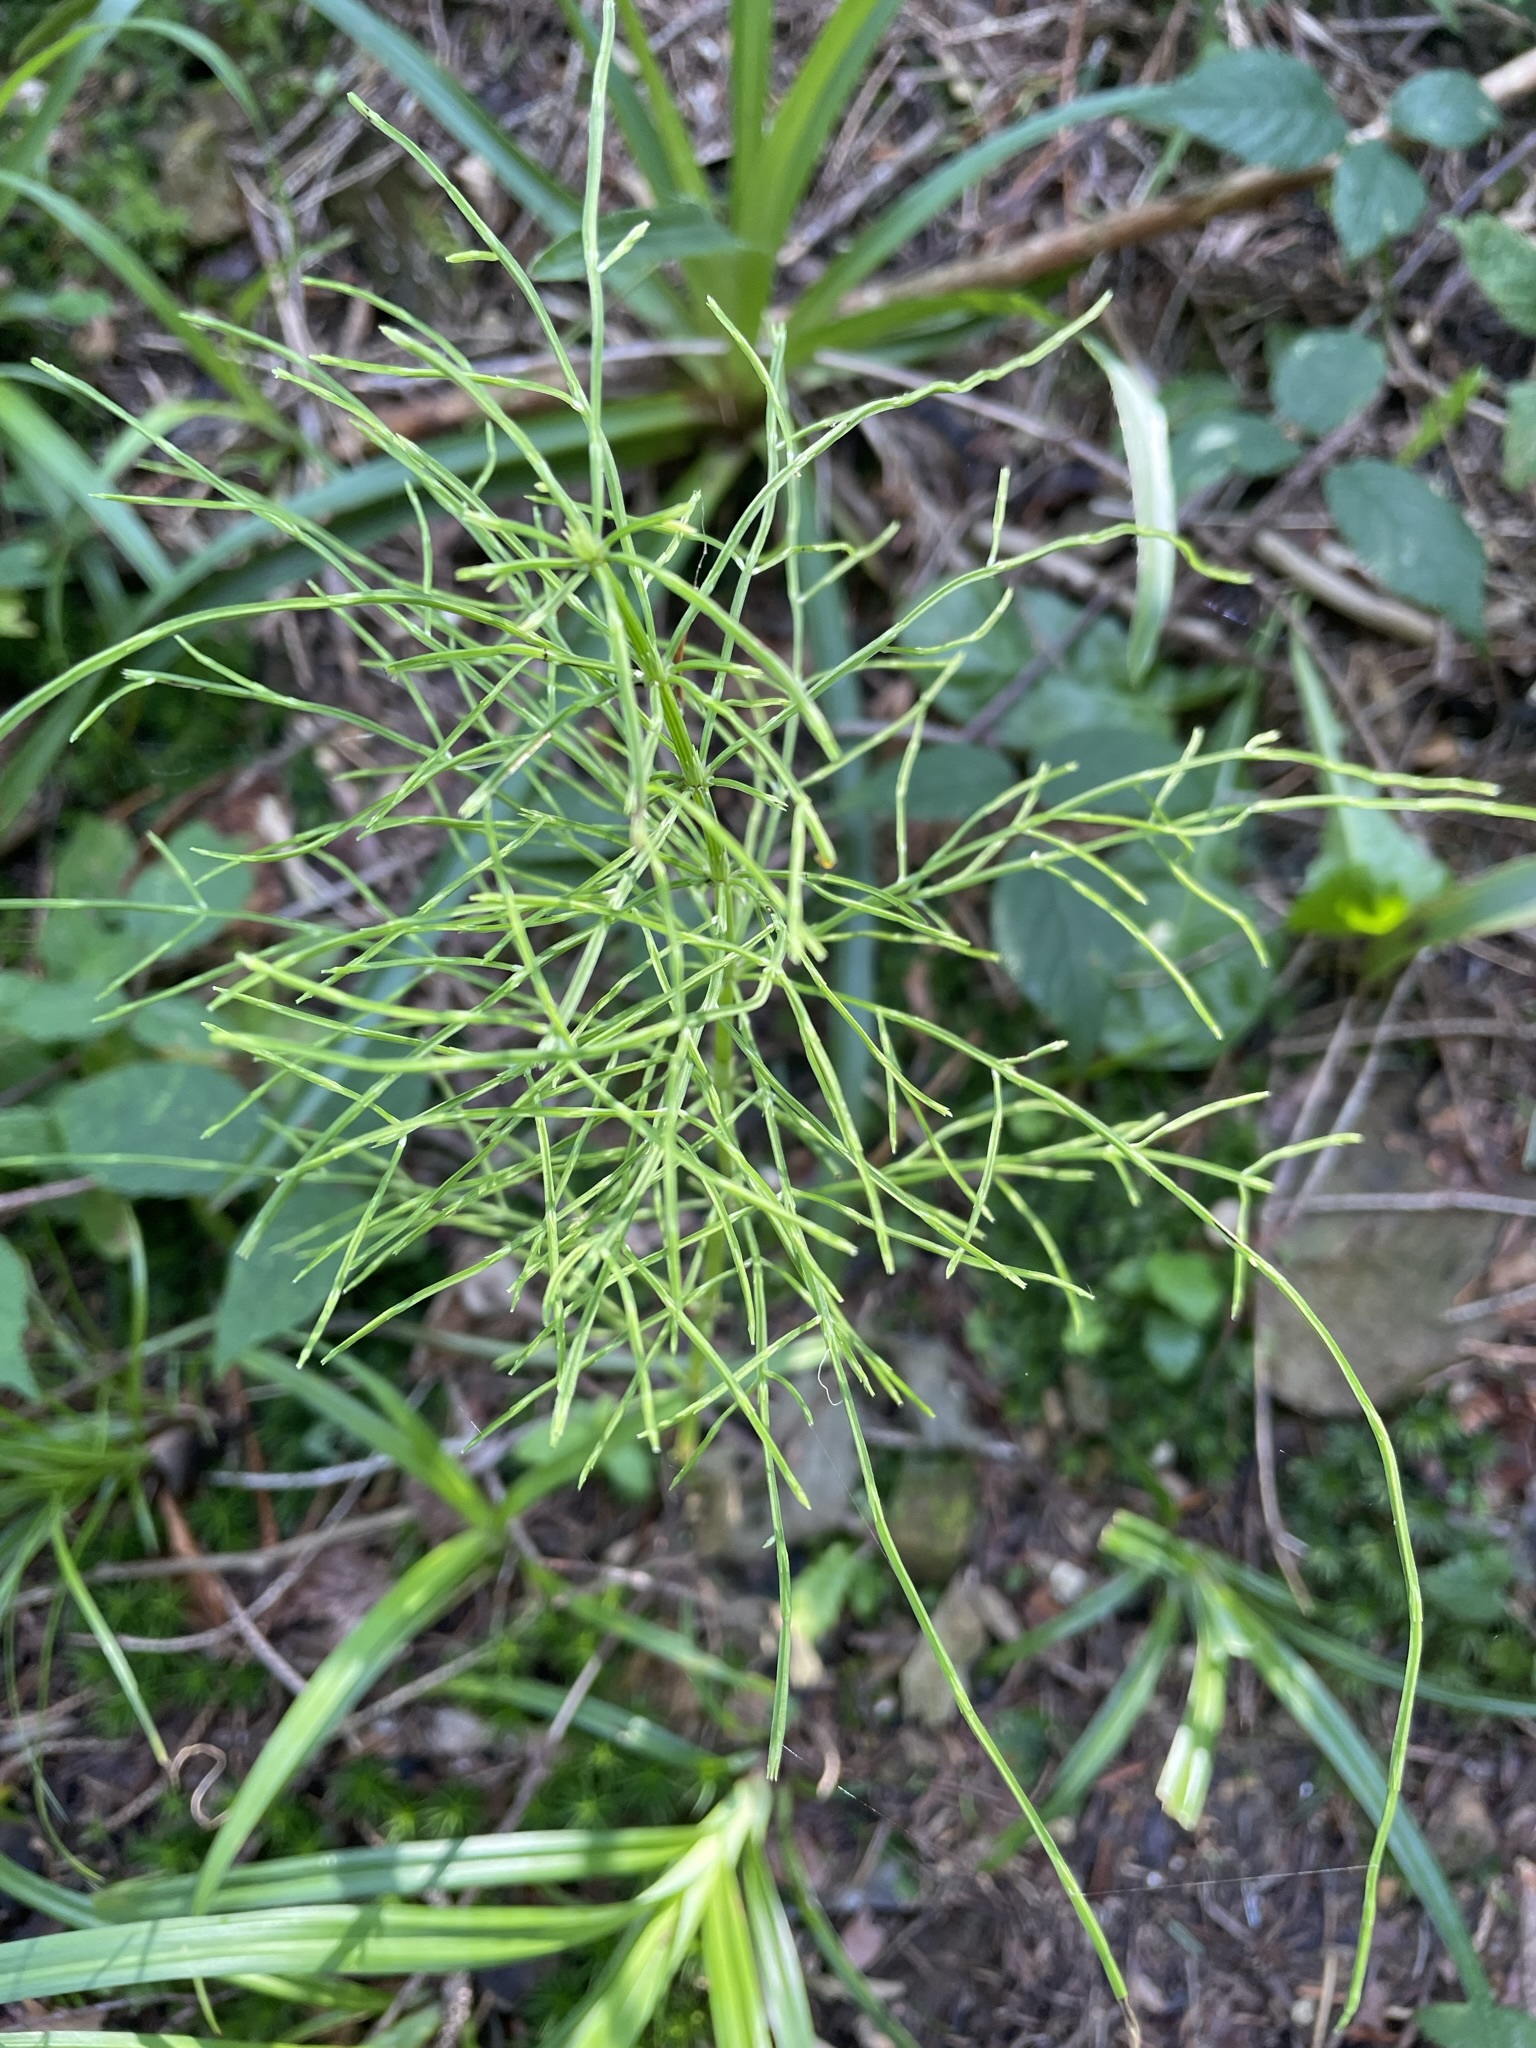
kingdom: Plantae
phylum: Tracheophyta
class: Polypodiopsida
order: Equisetales
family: Equisetaceae
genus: Equisetum
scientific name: Equisetum sylvaticum
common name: Wood horsetail
